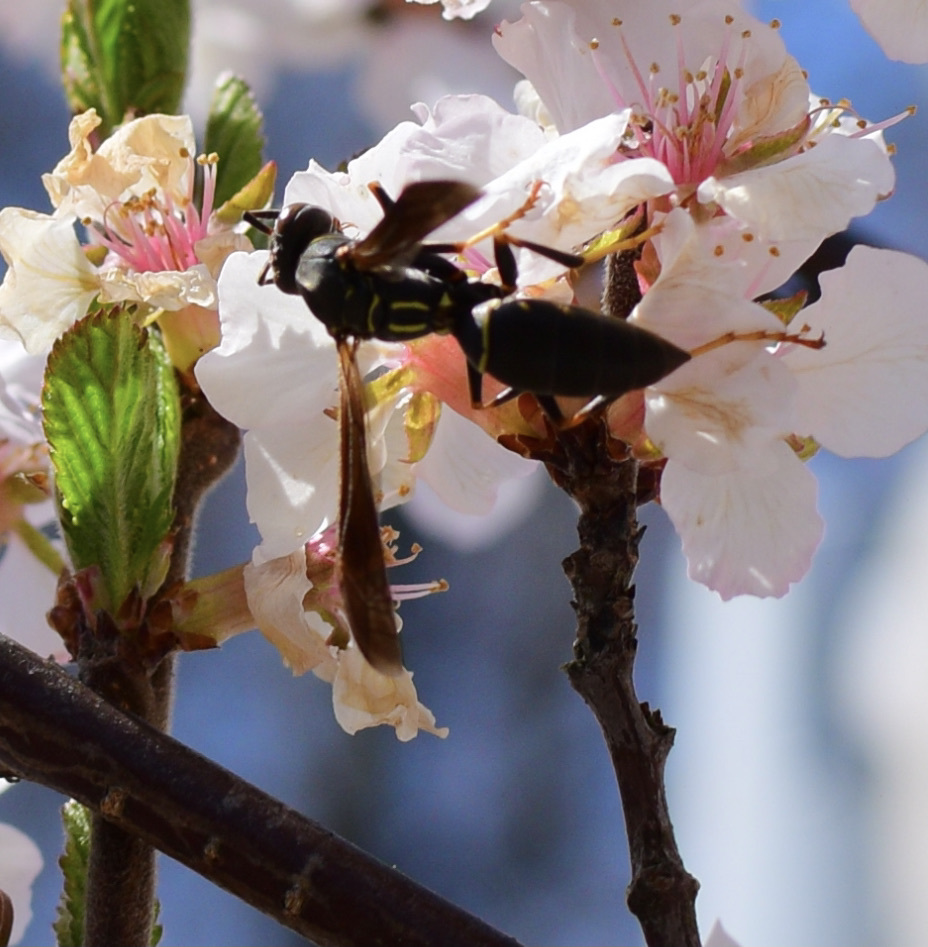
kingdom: Animalia
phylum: Arthropoda
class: Insecta
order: Hymenoptera
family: Eumenidae
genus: Polistes
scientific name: Polistes fuscatus
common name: Dark paper wasp
